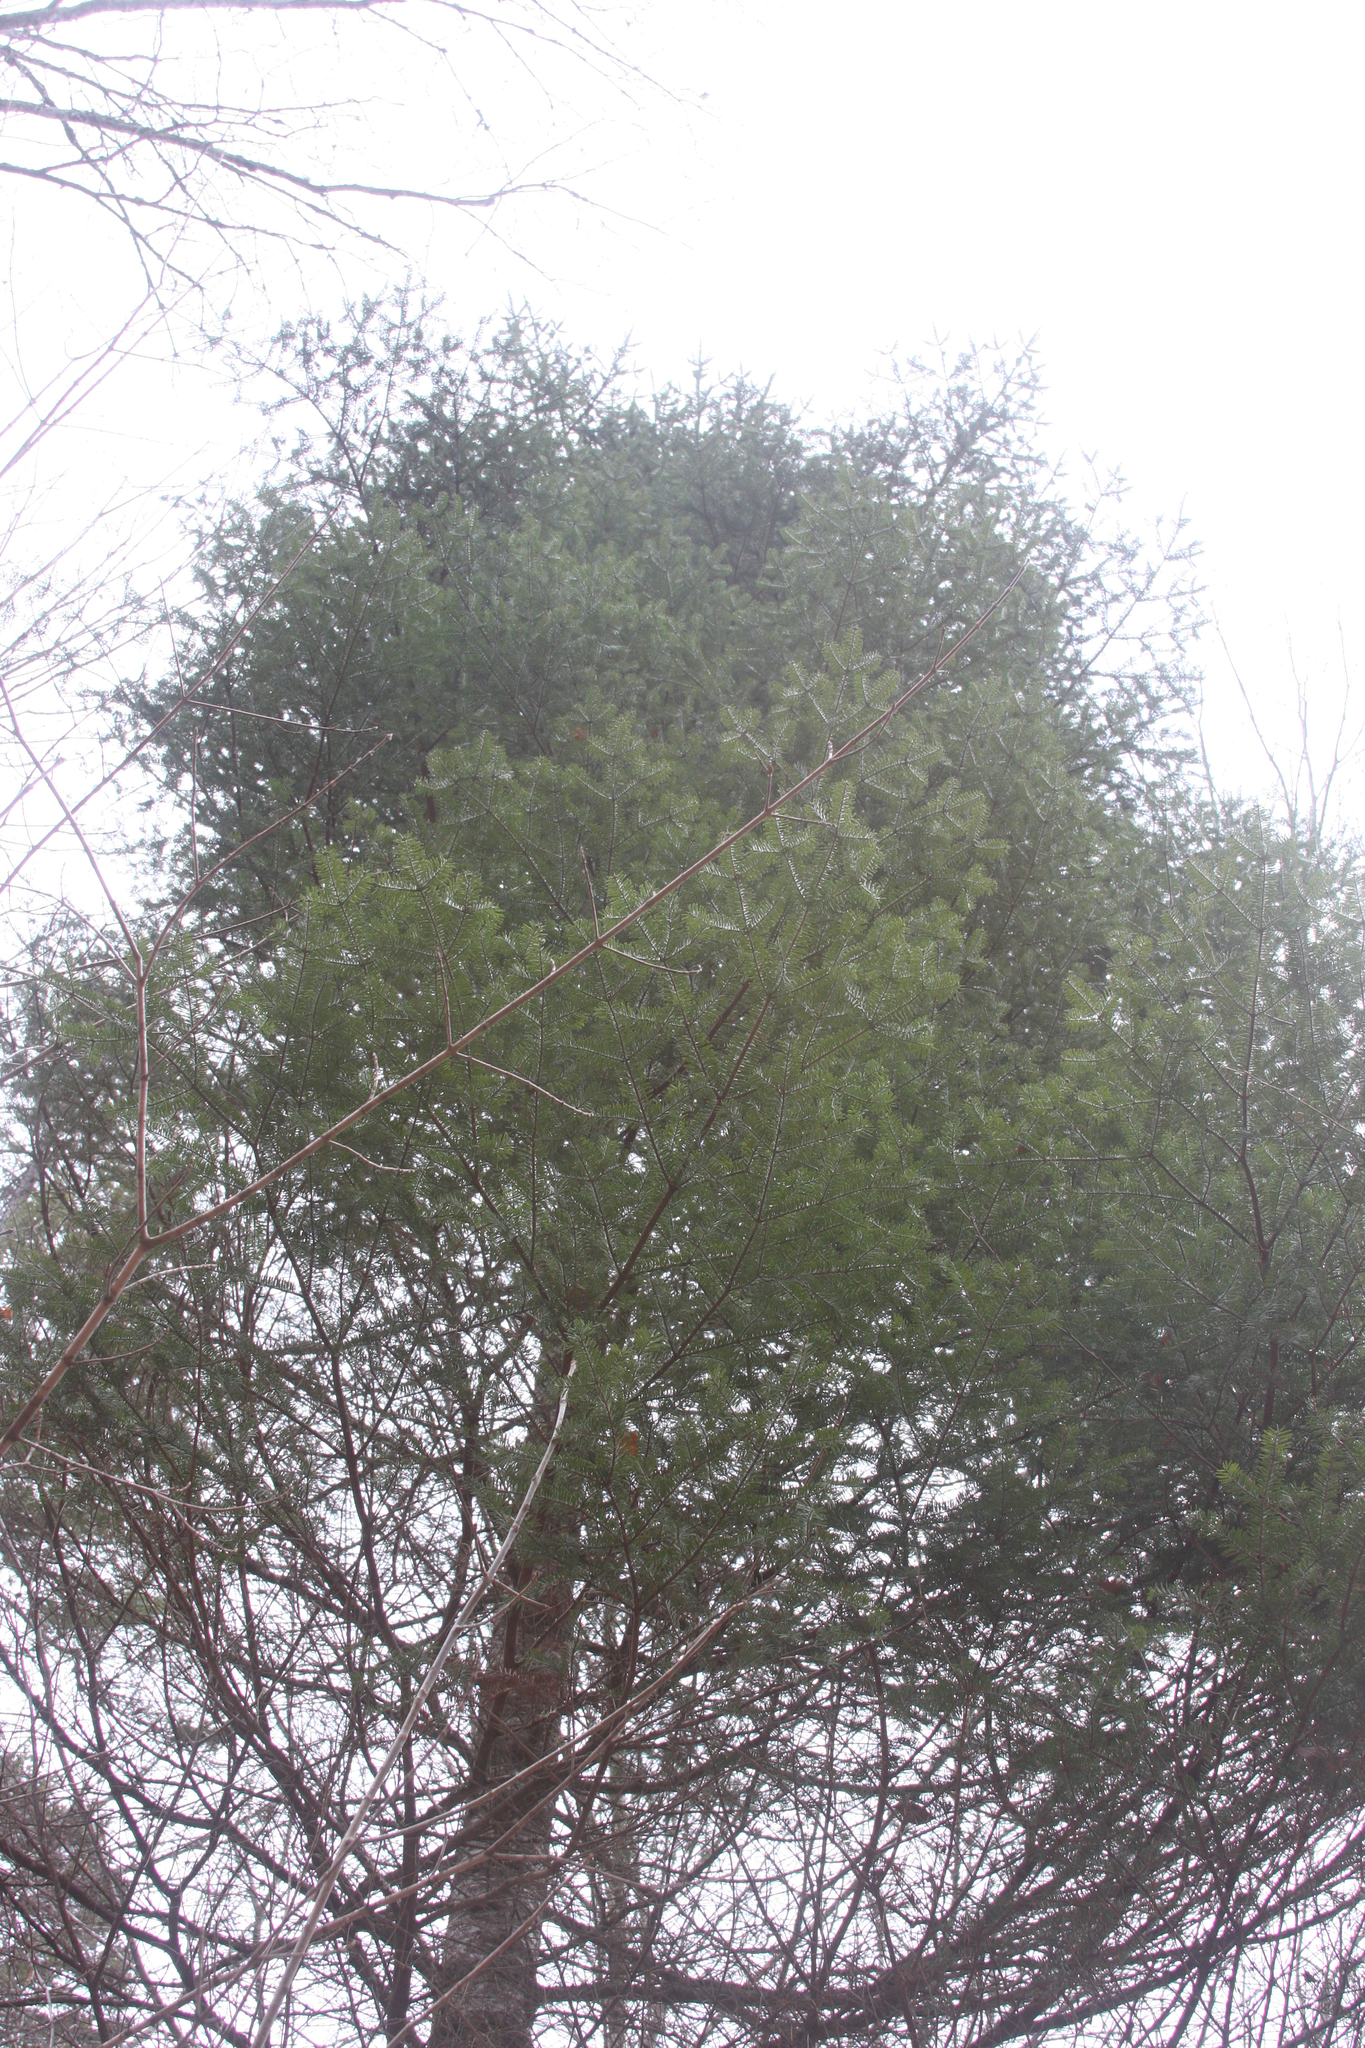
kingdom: Plantae
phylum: Tracheophyta
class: Pinopsida
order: Pinales
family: Pinaceae
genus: Abies
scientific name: Abies balsamea
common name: Balsam fir
